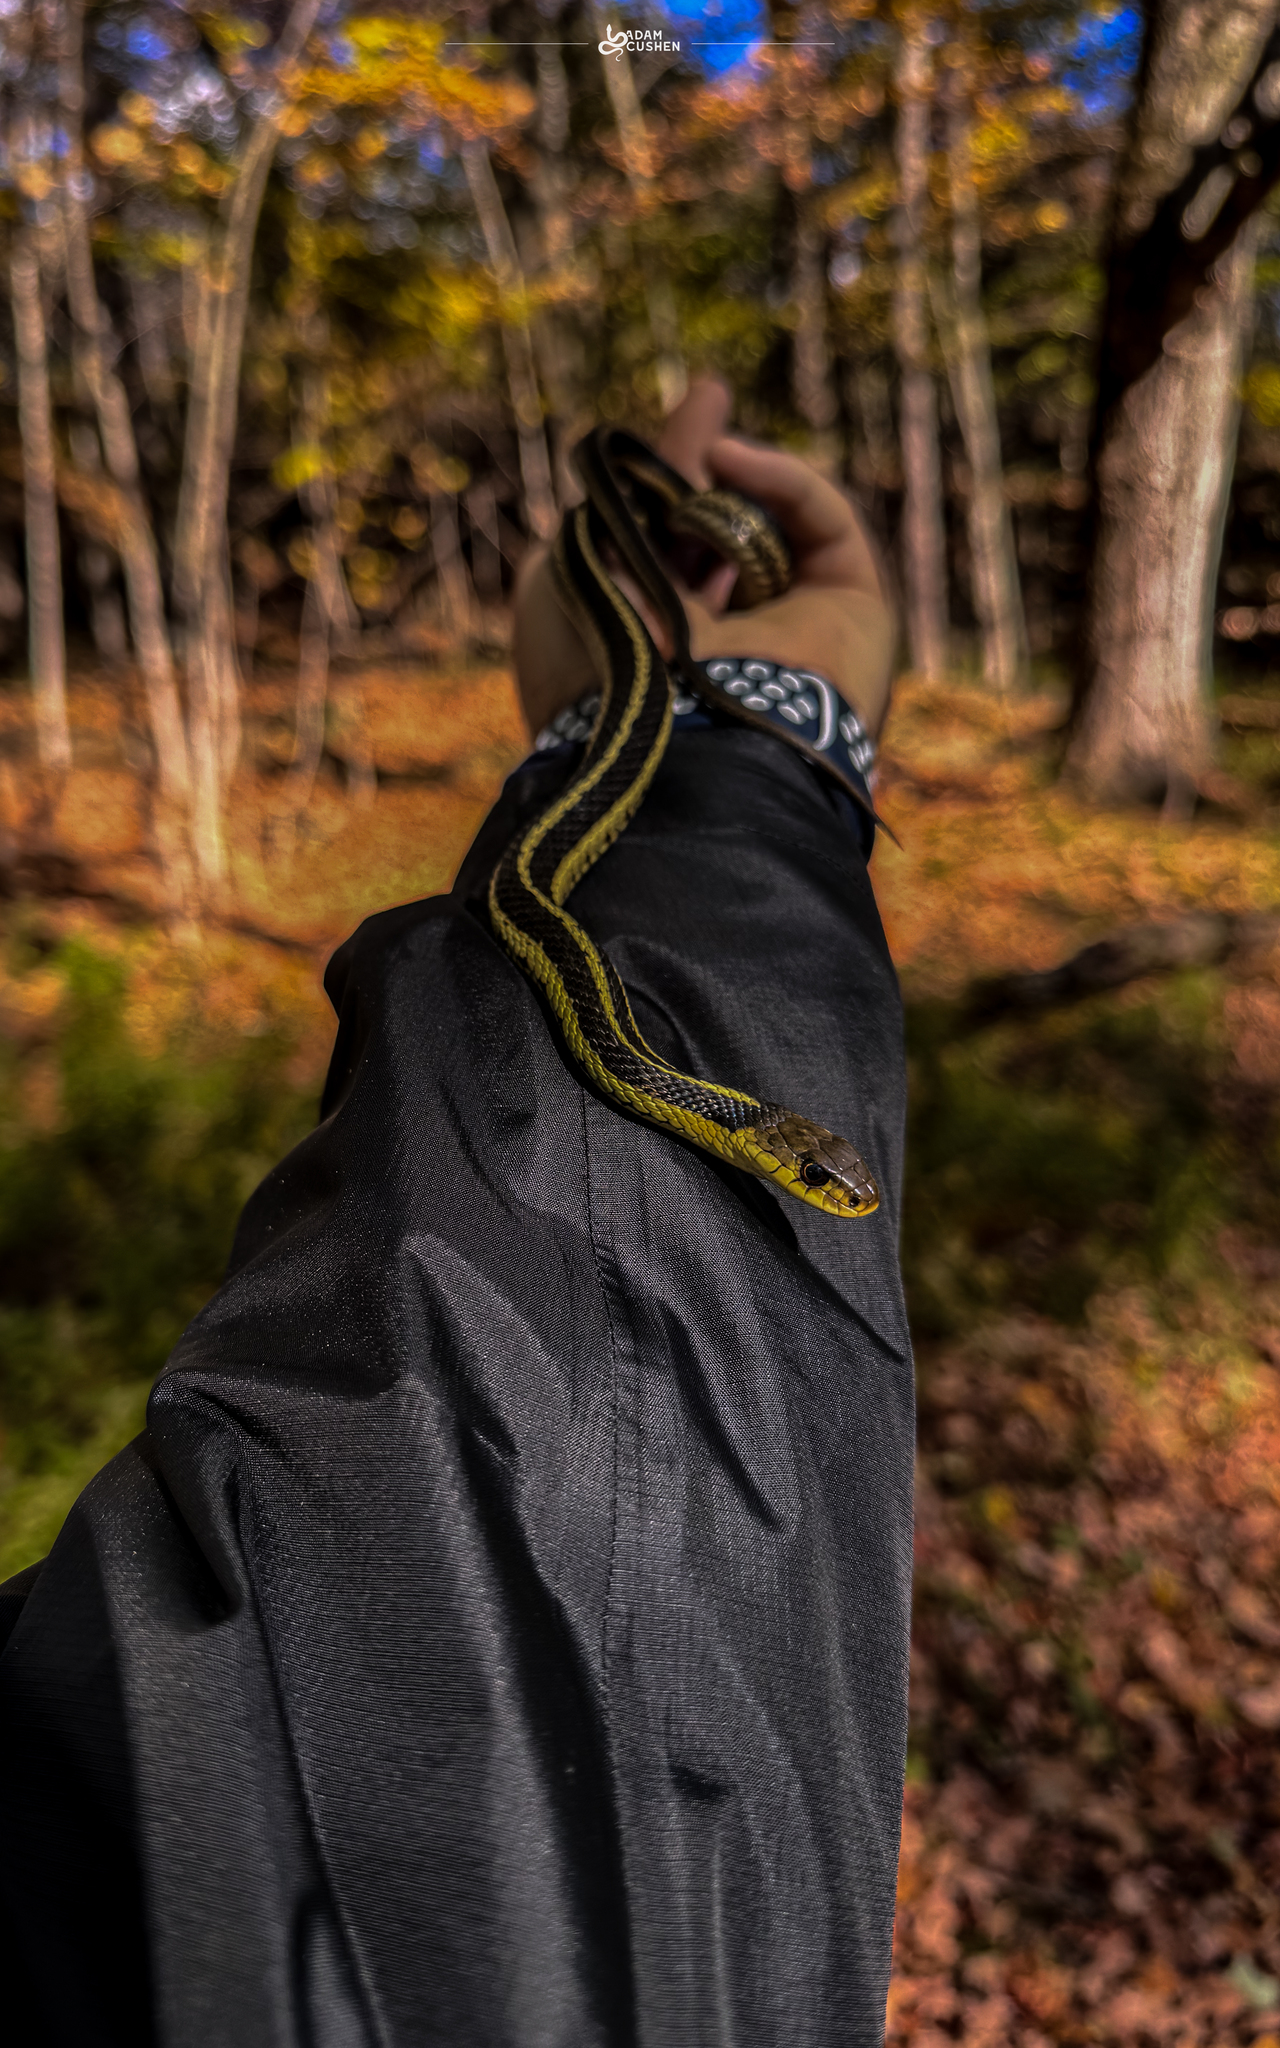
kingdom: Animalia
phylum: Chordata
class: Squamata
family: Colubridae
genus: Thamnophis
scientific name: Thamnophis sirtalis
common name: Common garter snake
